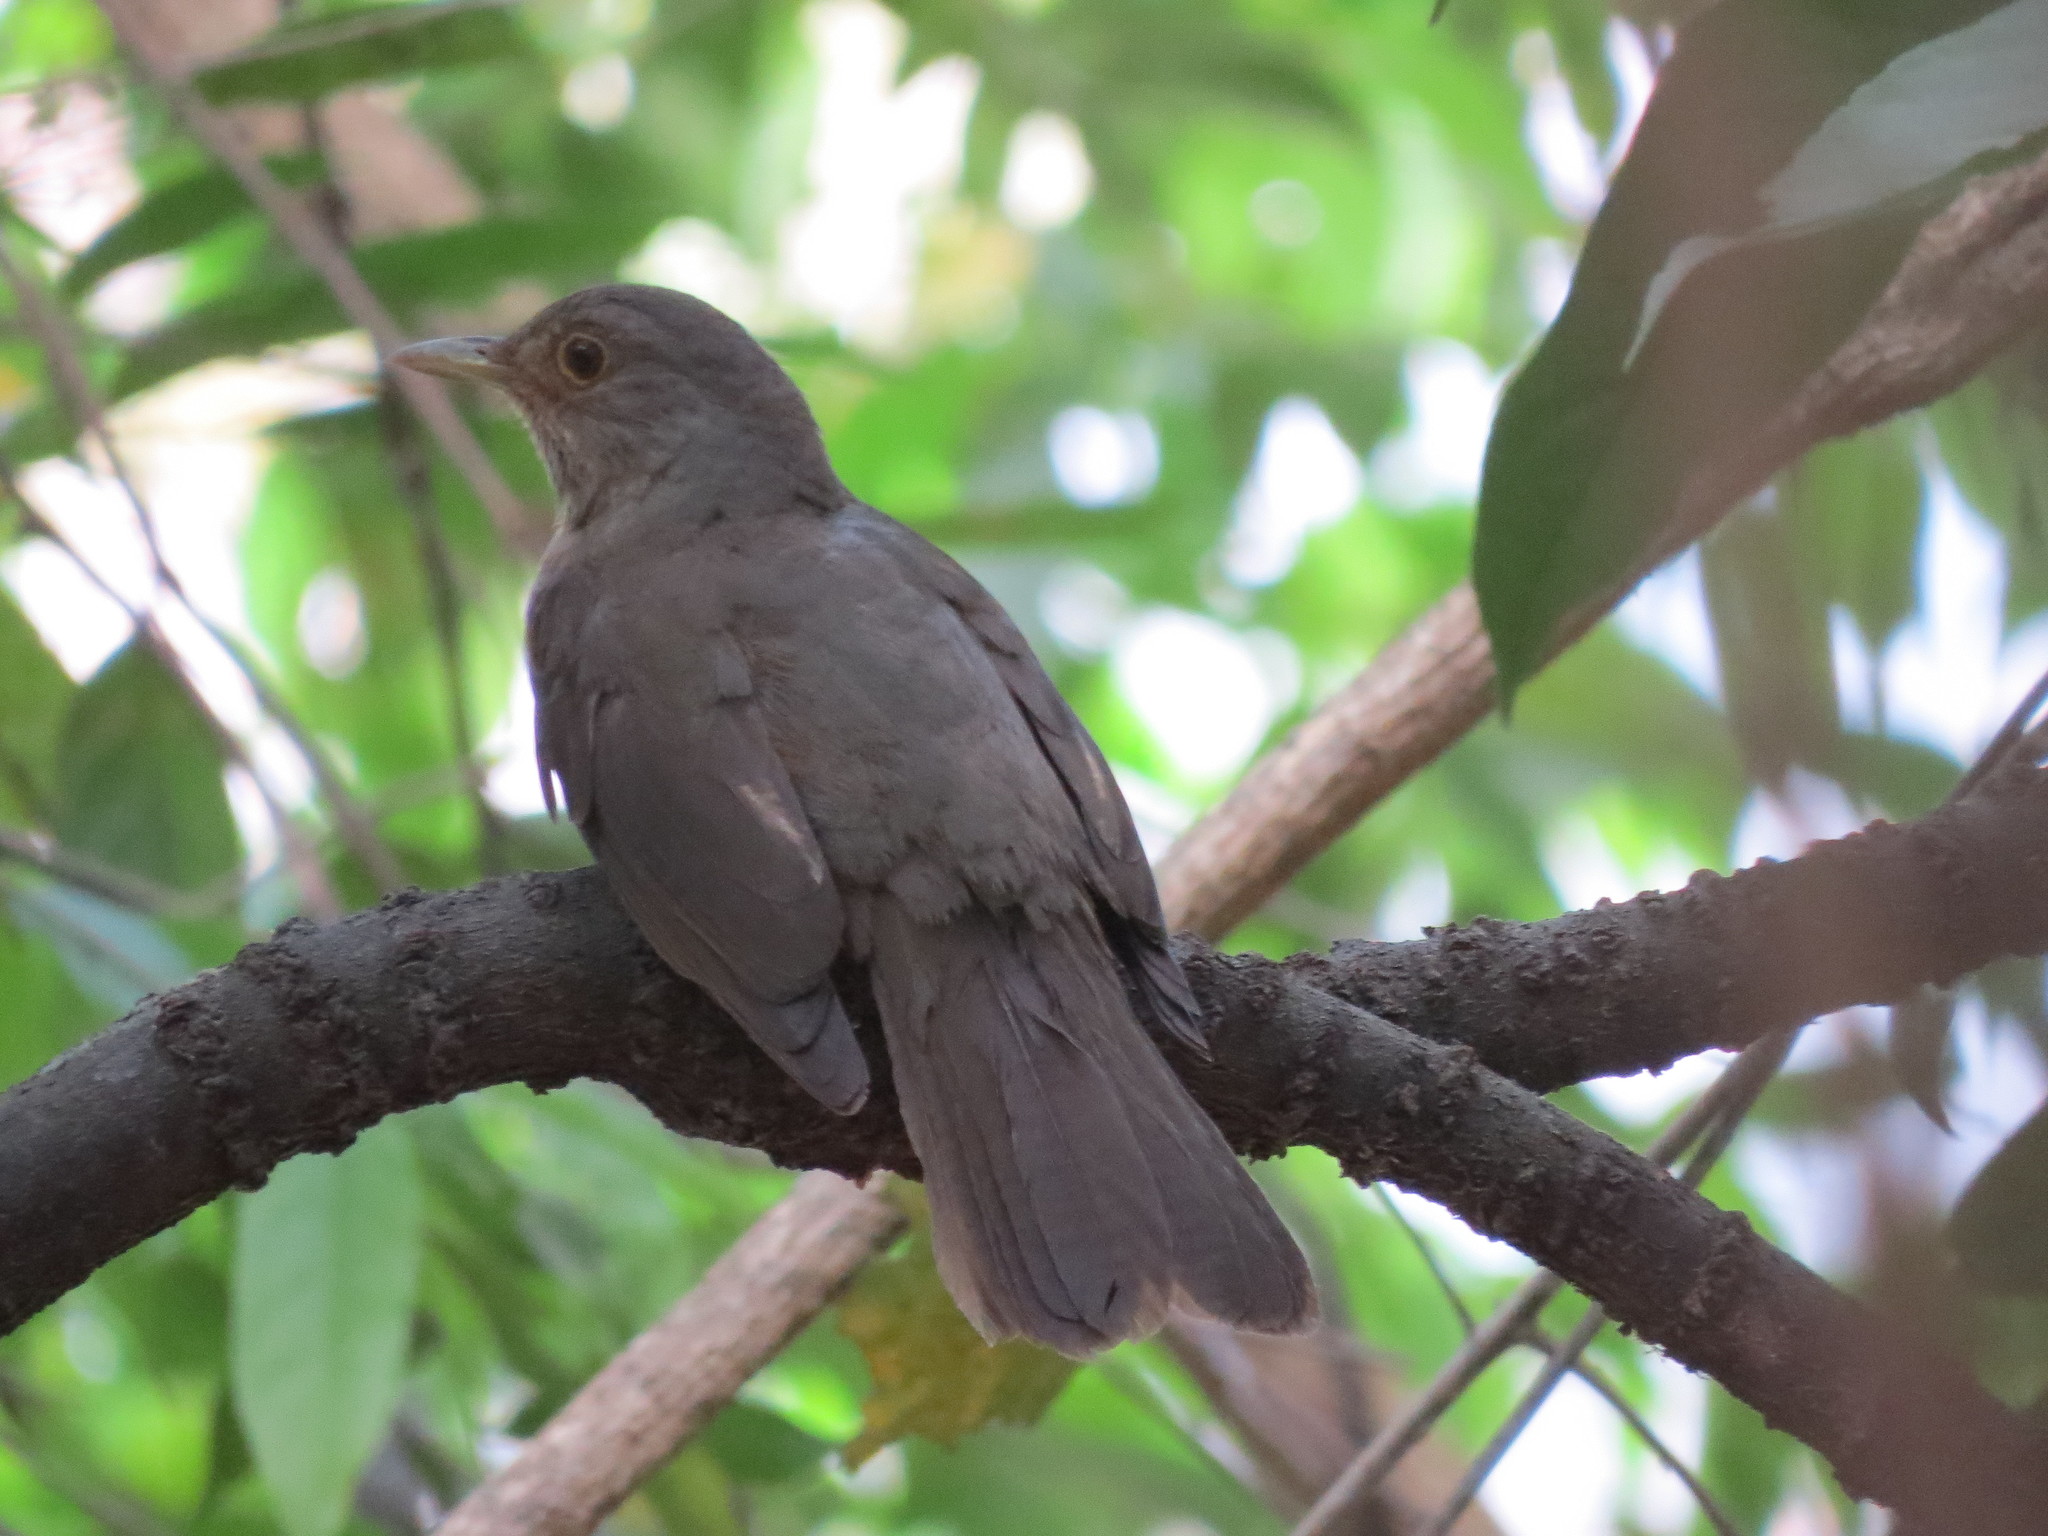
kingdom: Animalia
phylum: Chordata
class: Aves
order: Passeriformes
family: Turdidae
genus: Turdus
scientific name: Turdus rufiventris
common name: Rufous-bellied thrush
